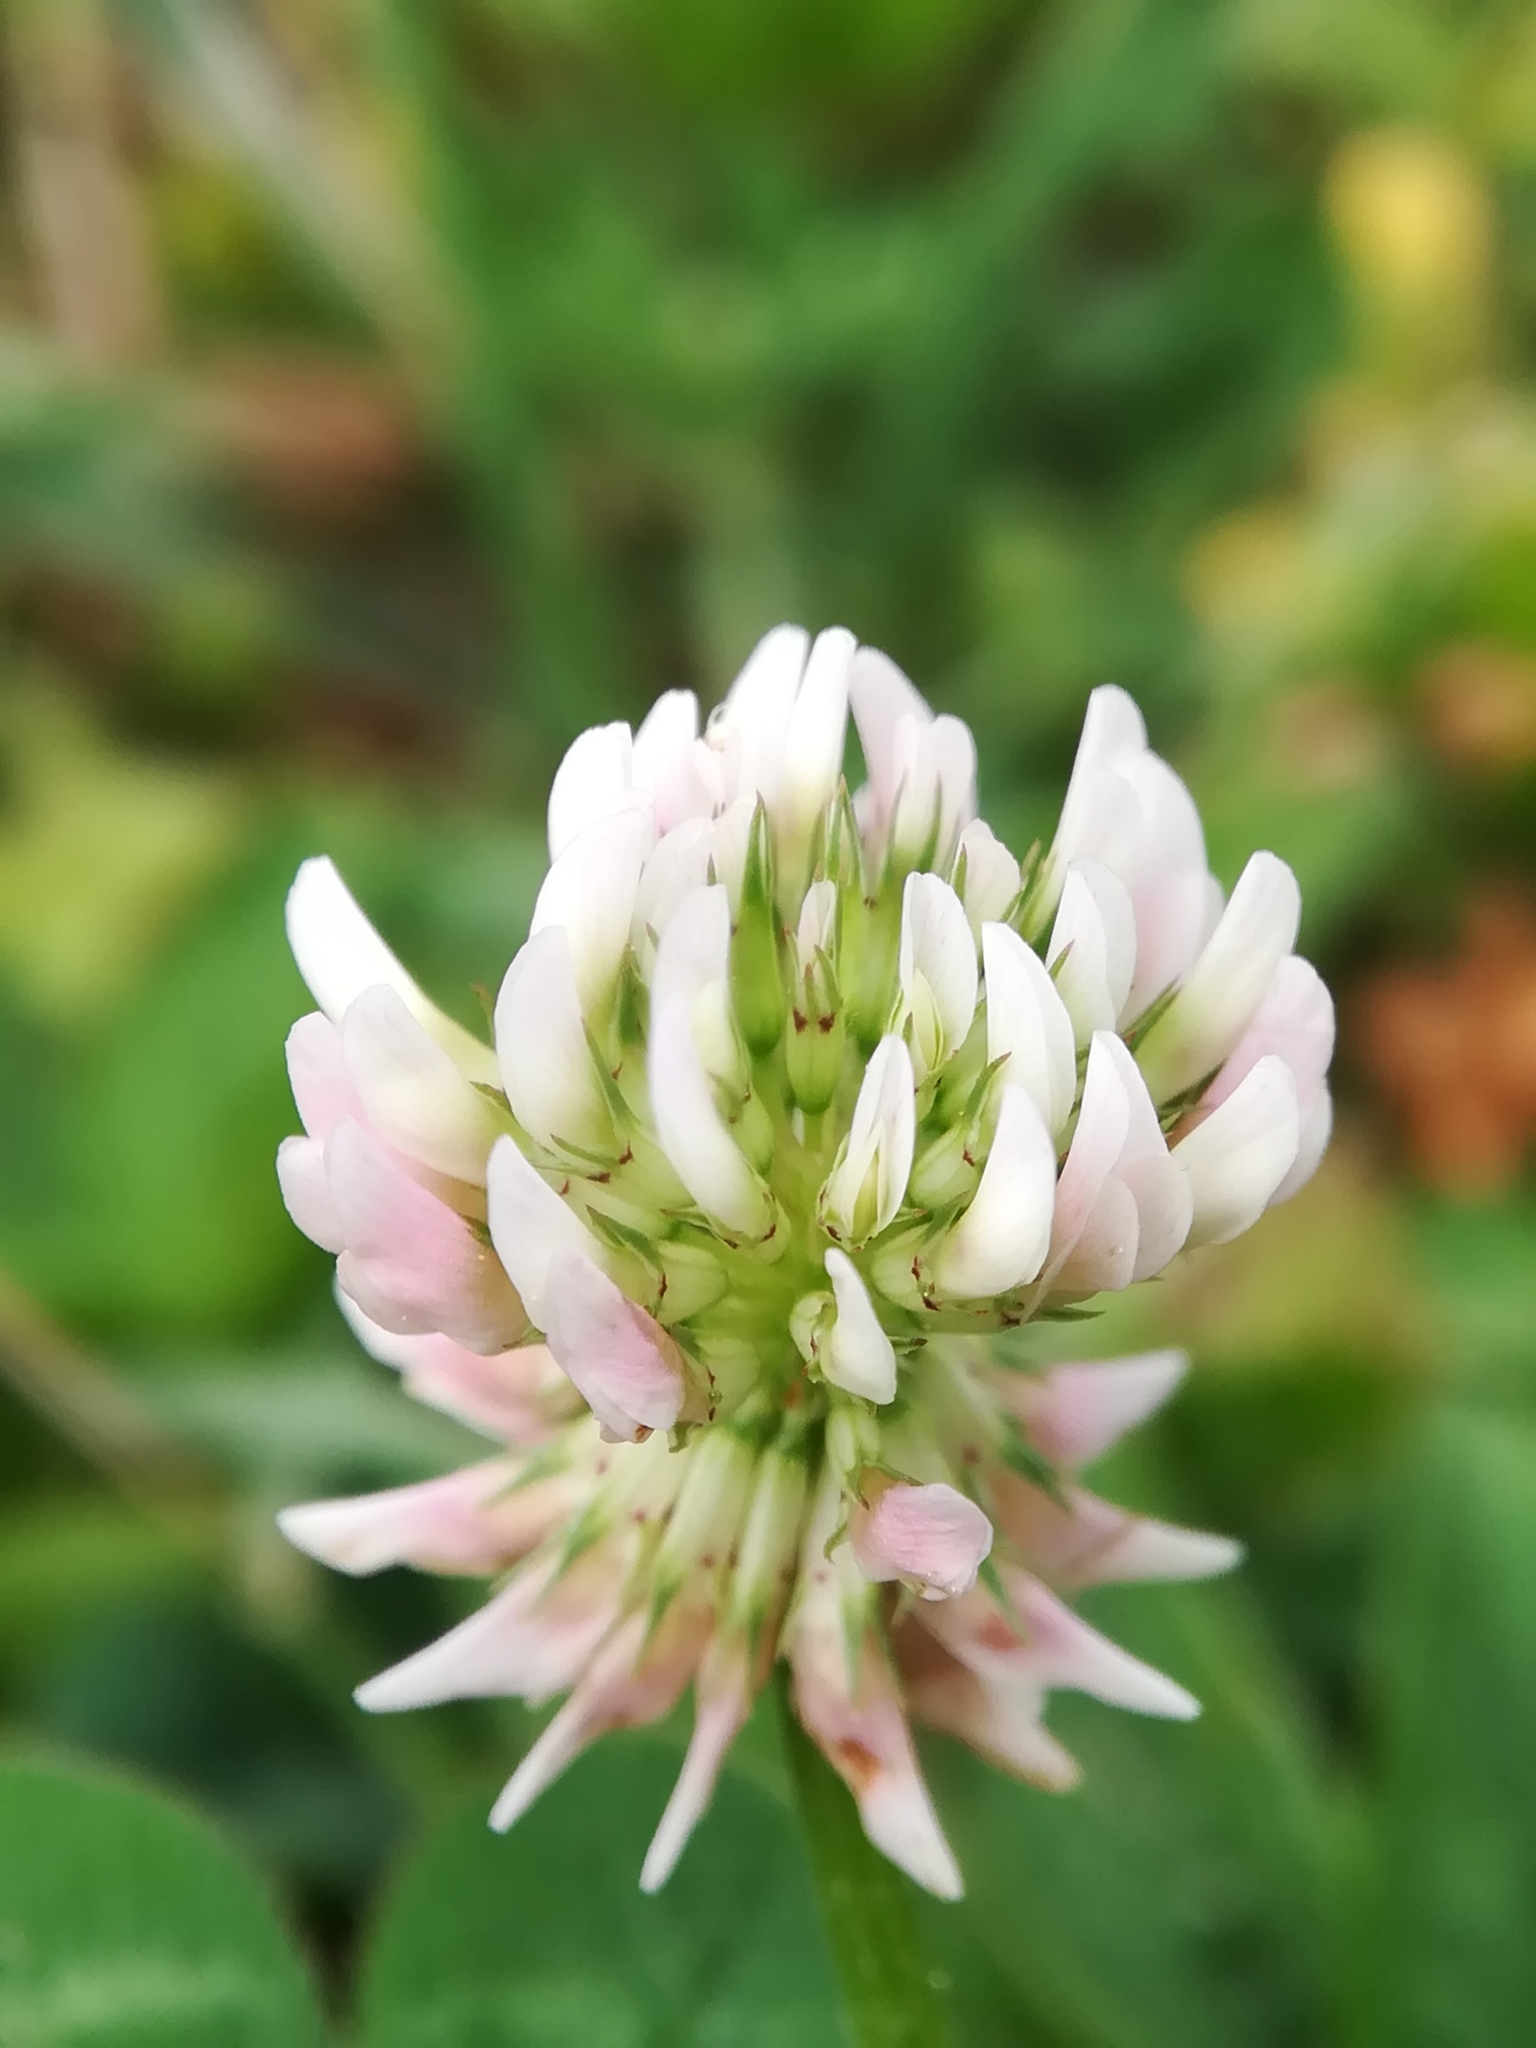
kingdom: Plantae
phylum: Tracheophyta
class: Magnoliopsida
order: Fabales
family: Fabaceae
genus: Trifolium
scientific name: Trifolium repens
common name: White clover
